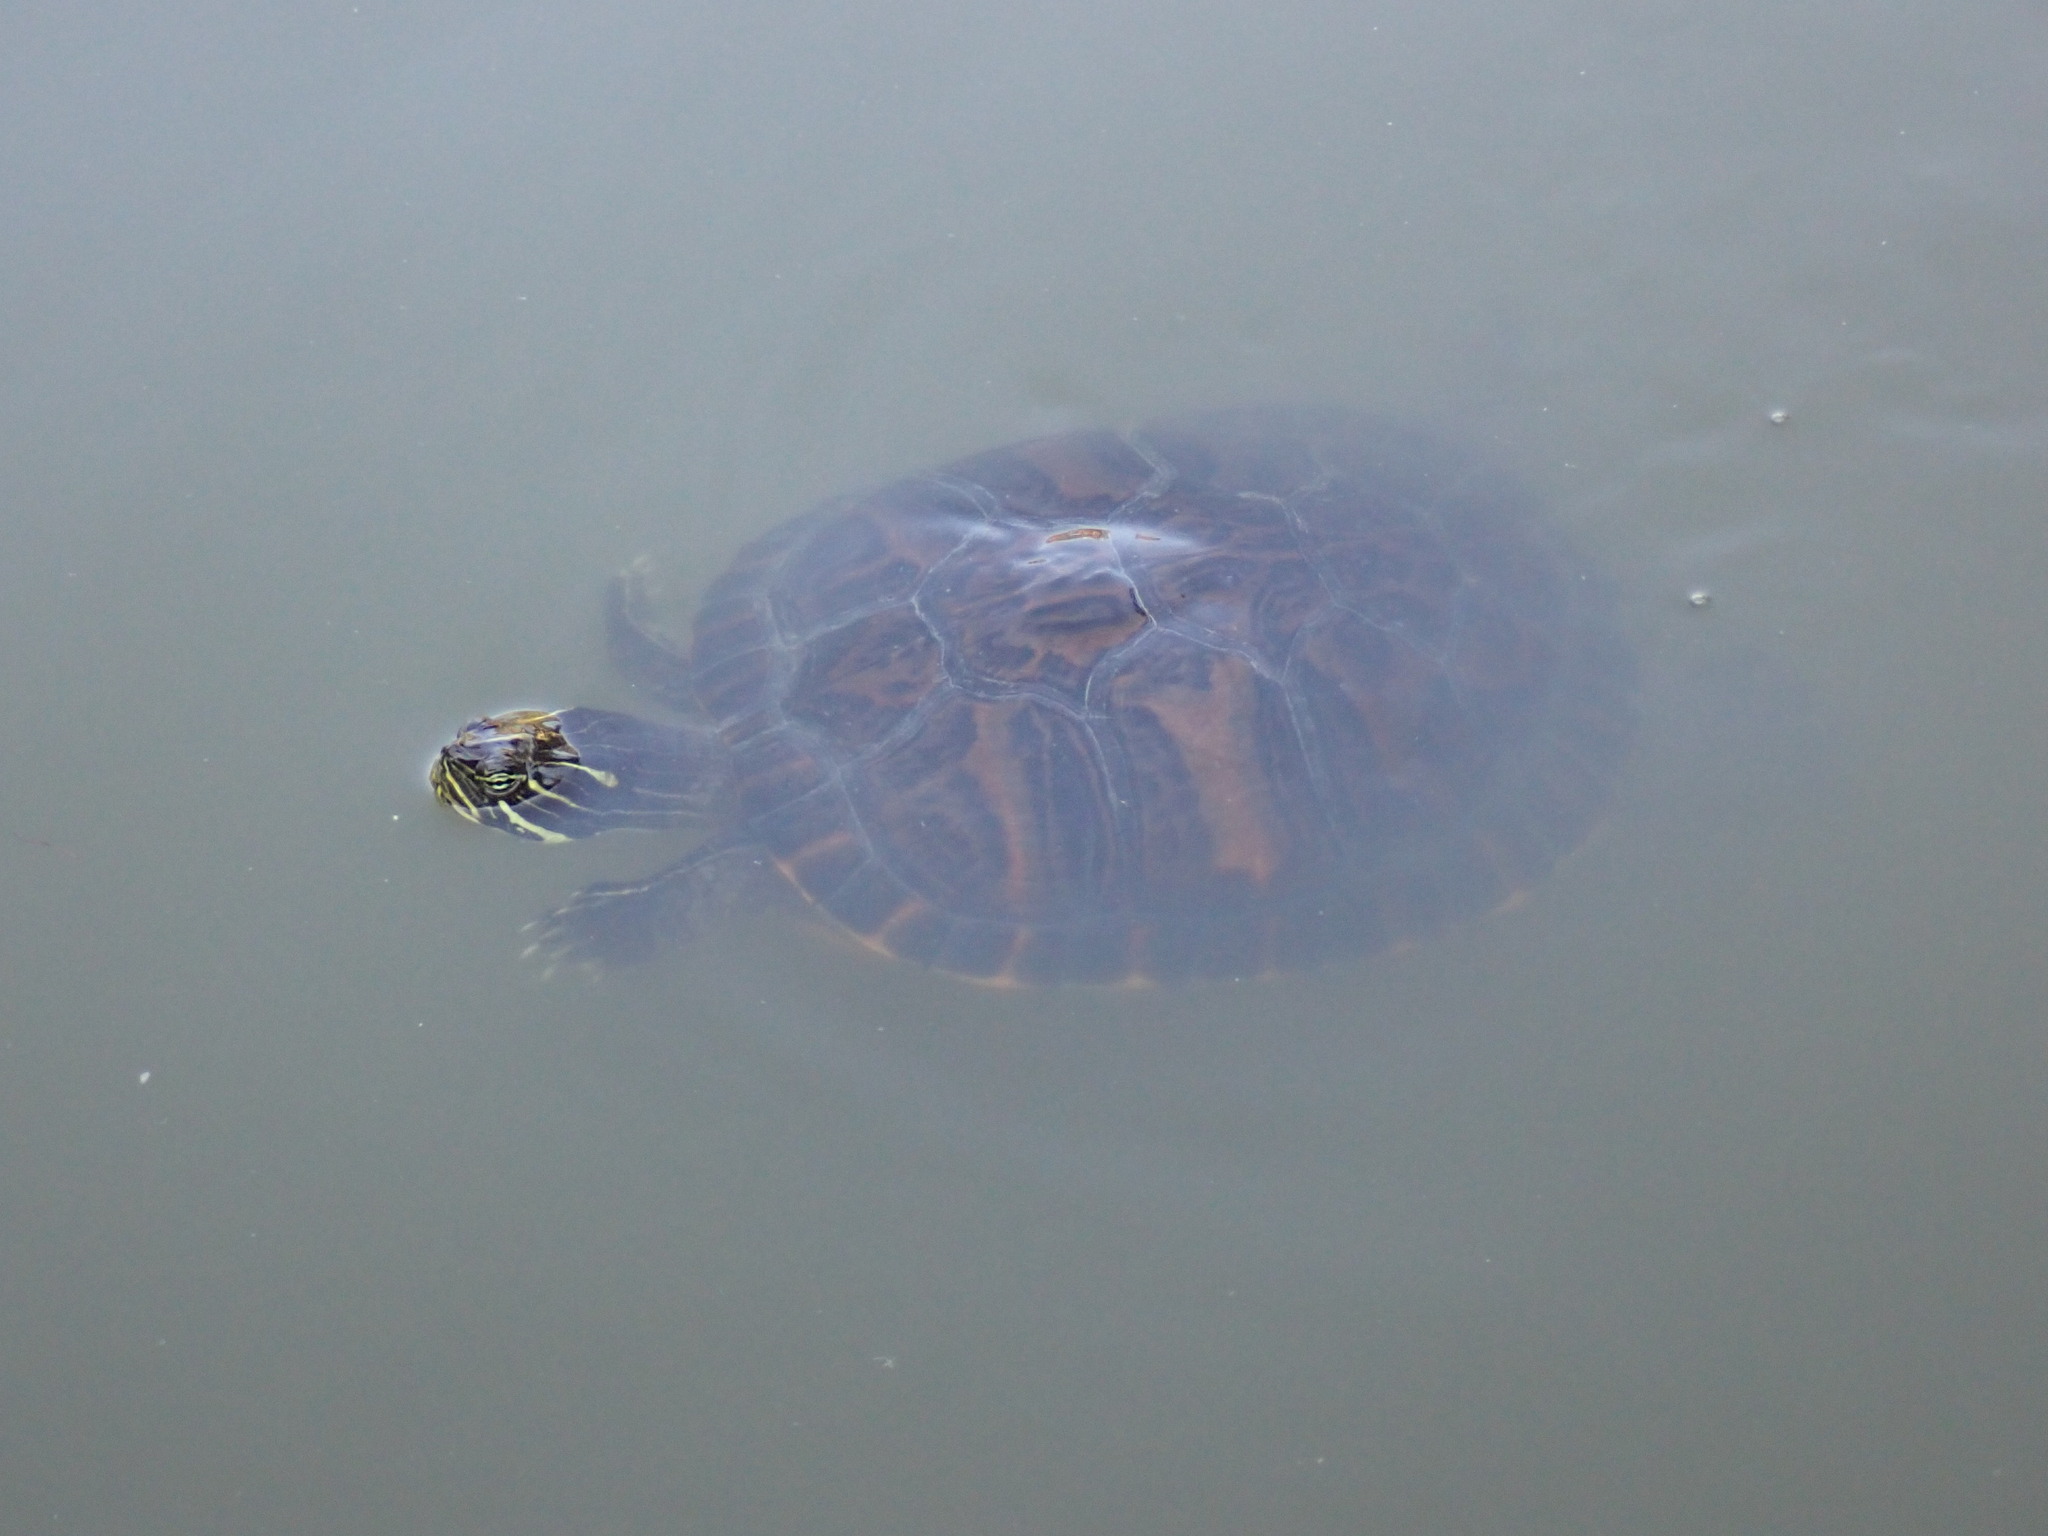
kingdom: Animalia
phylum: Chordata
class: Testudines
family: Emydidae
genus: Pseudemys
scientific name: Pseudemys nelsoni
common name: Florida red-bellied turtle
